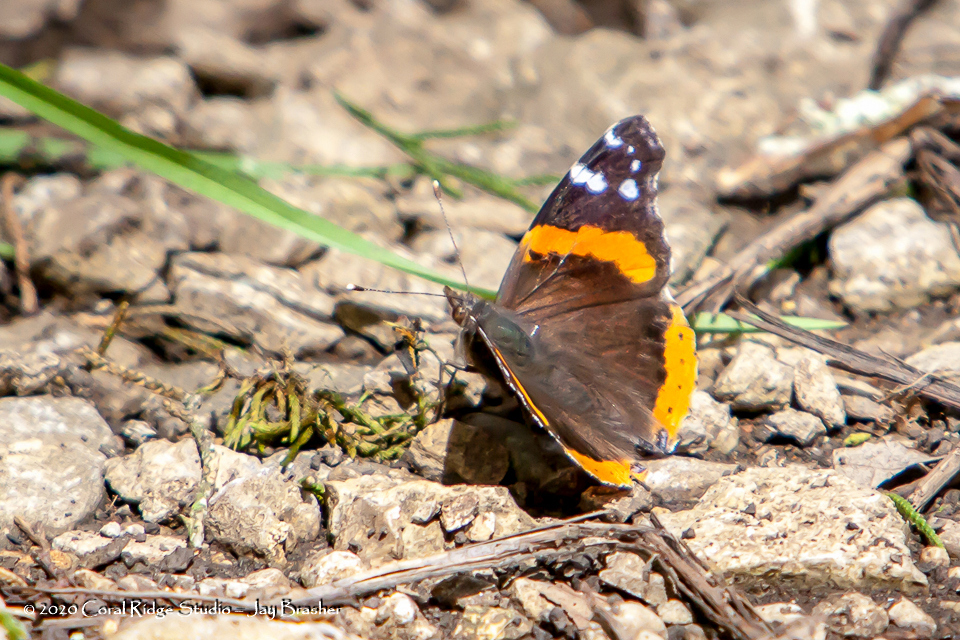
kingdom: Animalia
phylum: Arthropoda
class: Insecta
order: Lepidoptera
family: Nymphalidae
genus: Vanessa
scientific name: Vanessa atalanta
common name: Red admiral
